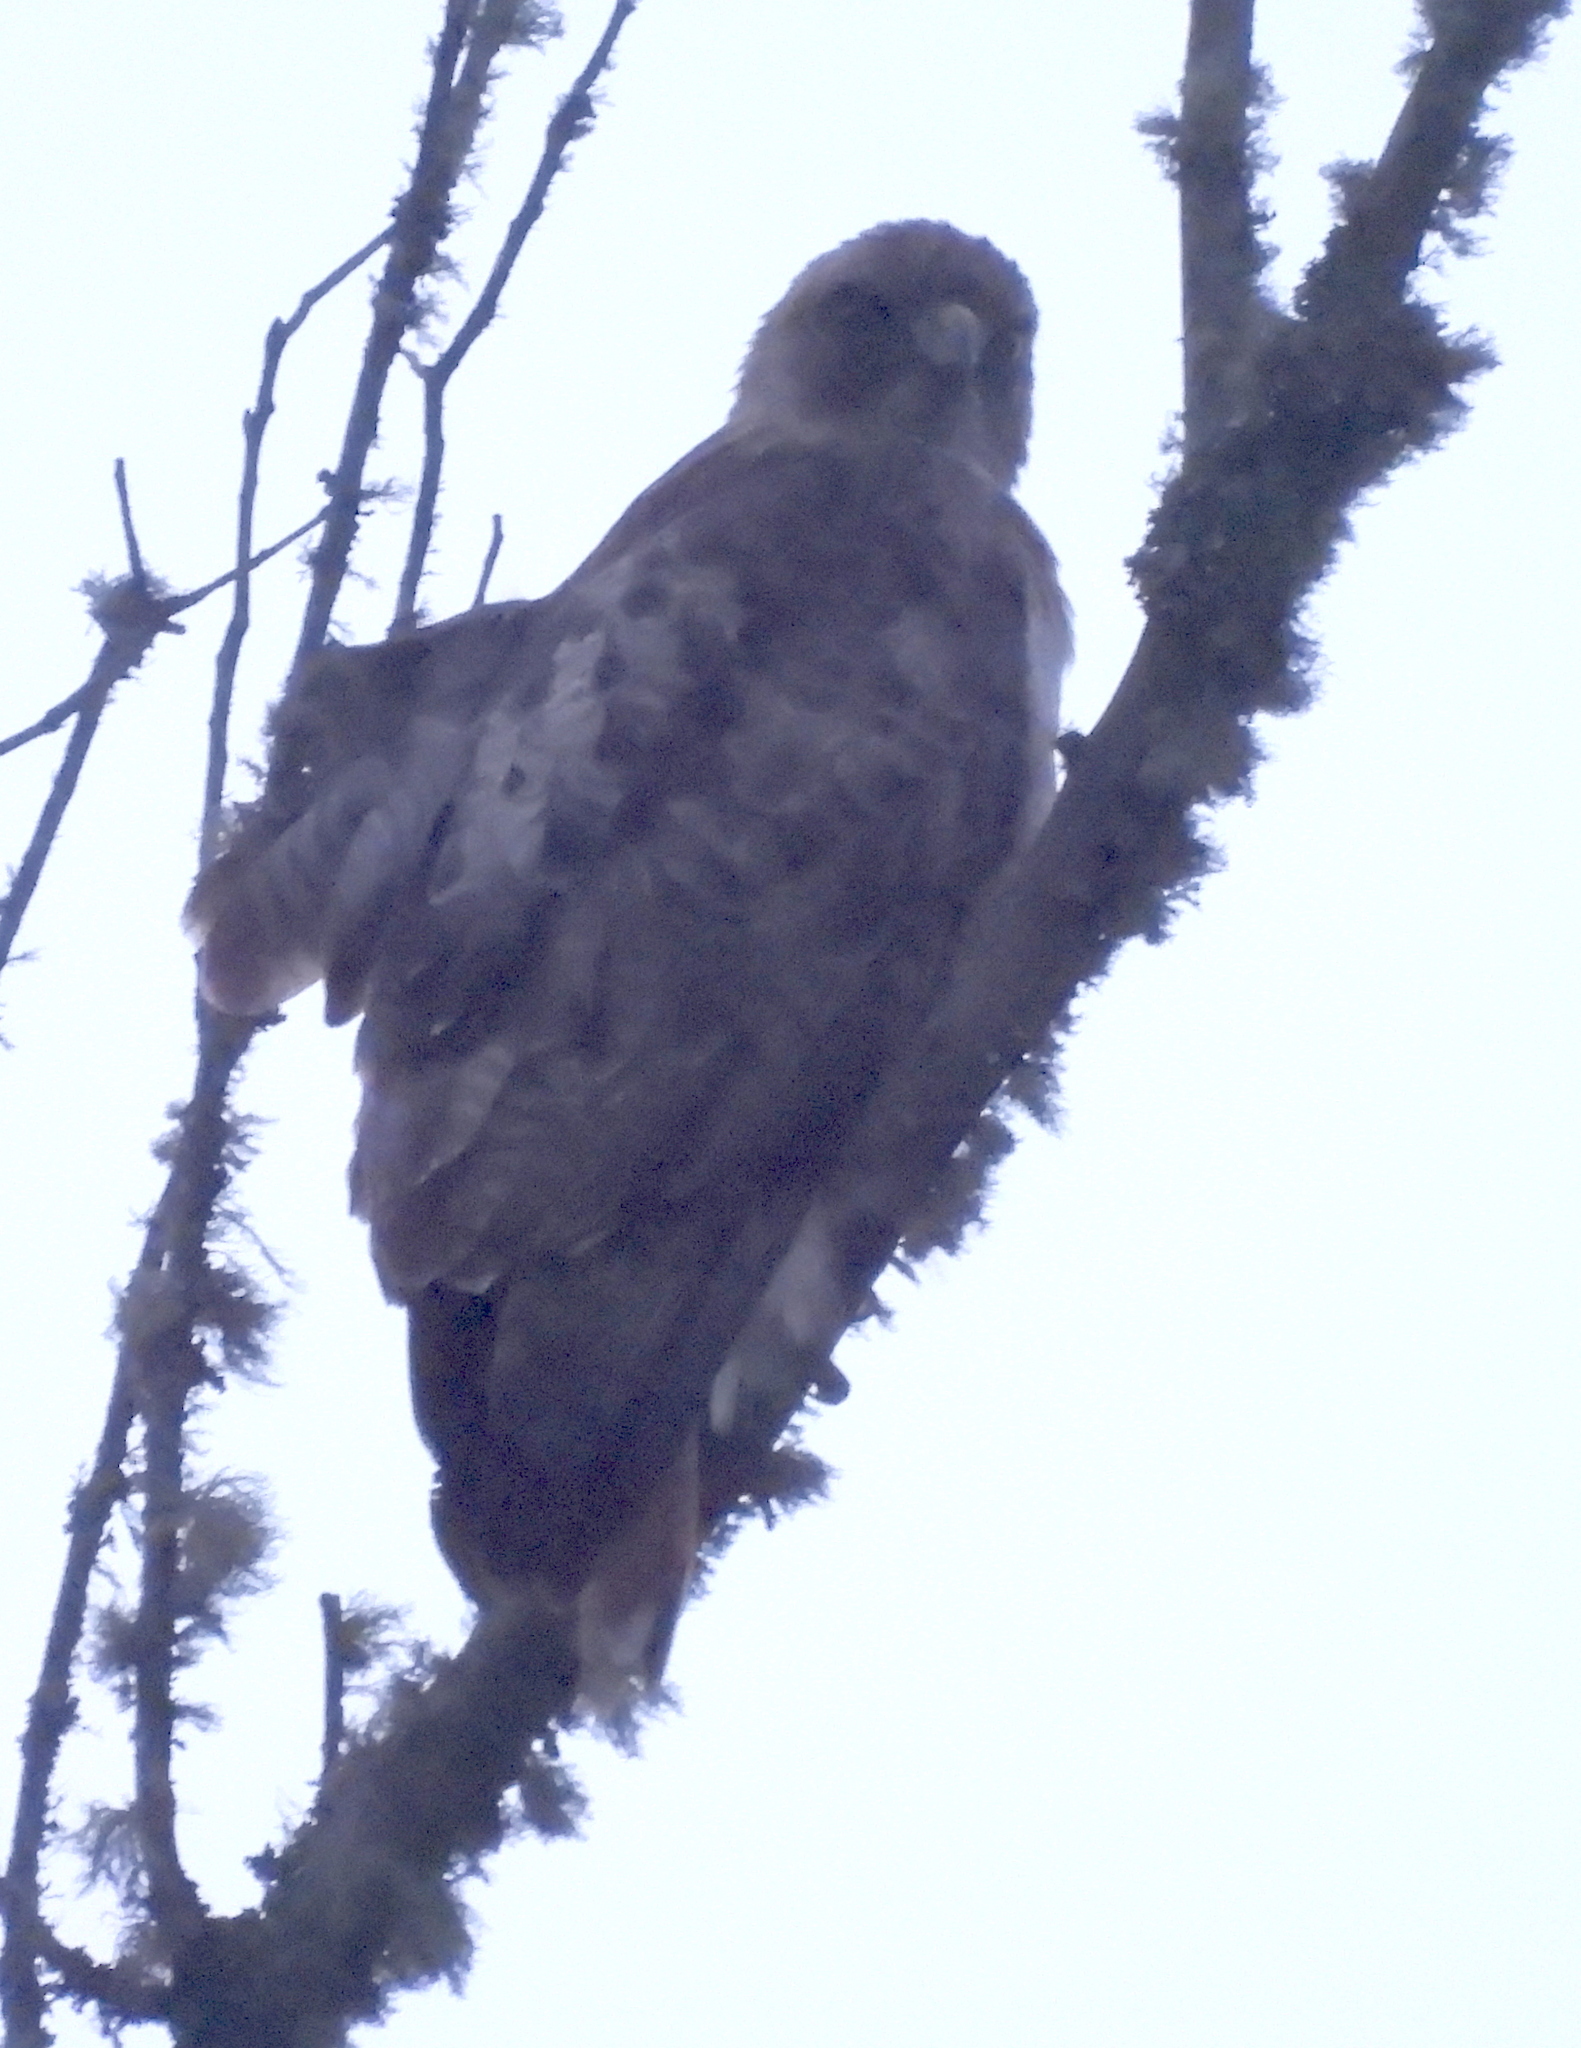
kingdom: Animalia
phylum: Chordata
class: Aves
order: Accipitriformes
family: Accipitridae
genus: Buteo
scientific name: Buteo jamaicensis
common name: Red-tailed hawk
